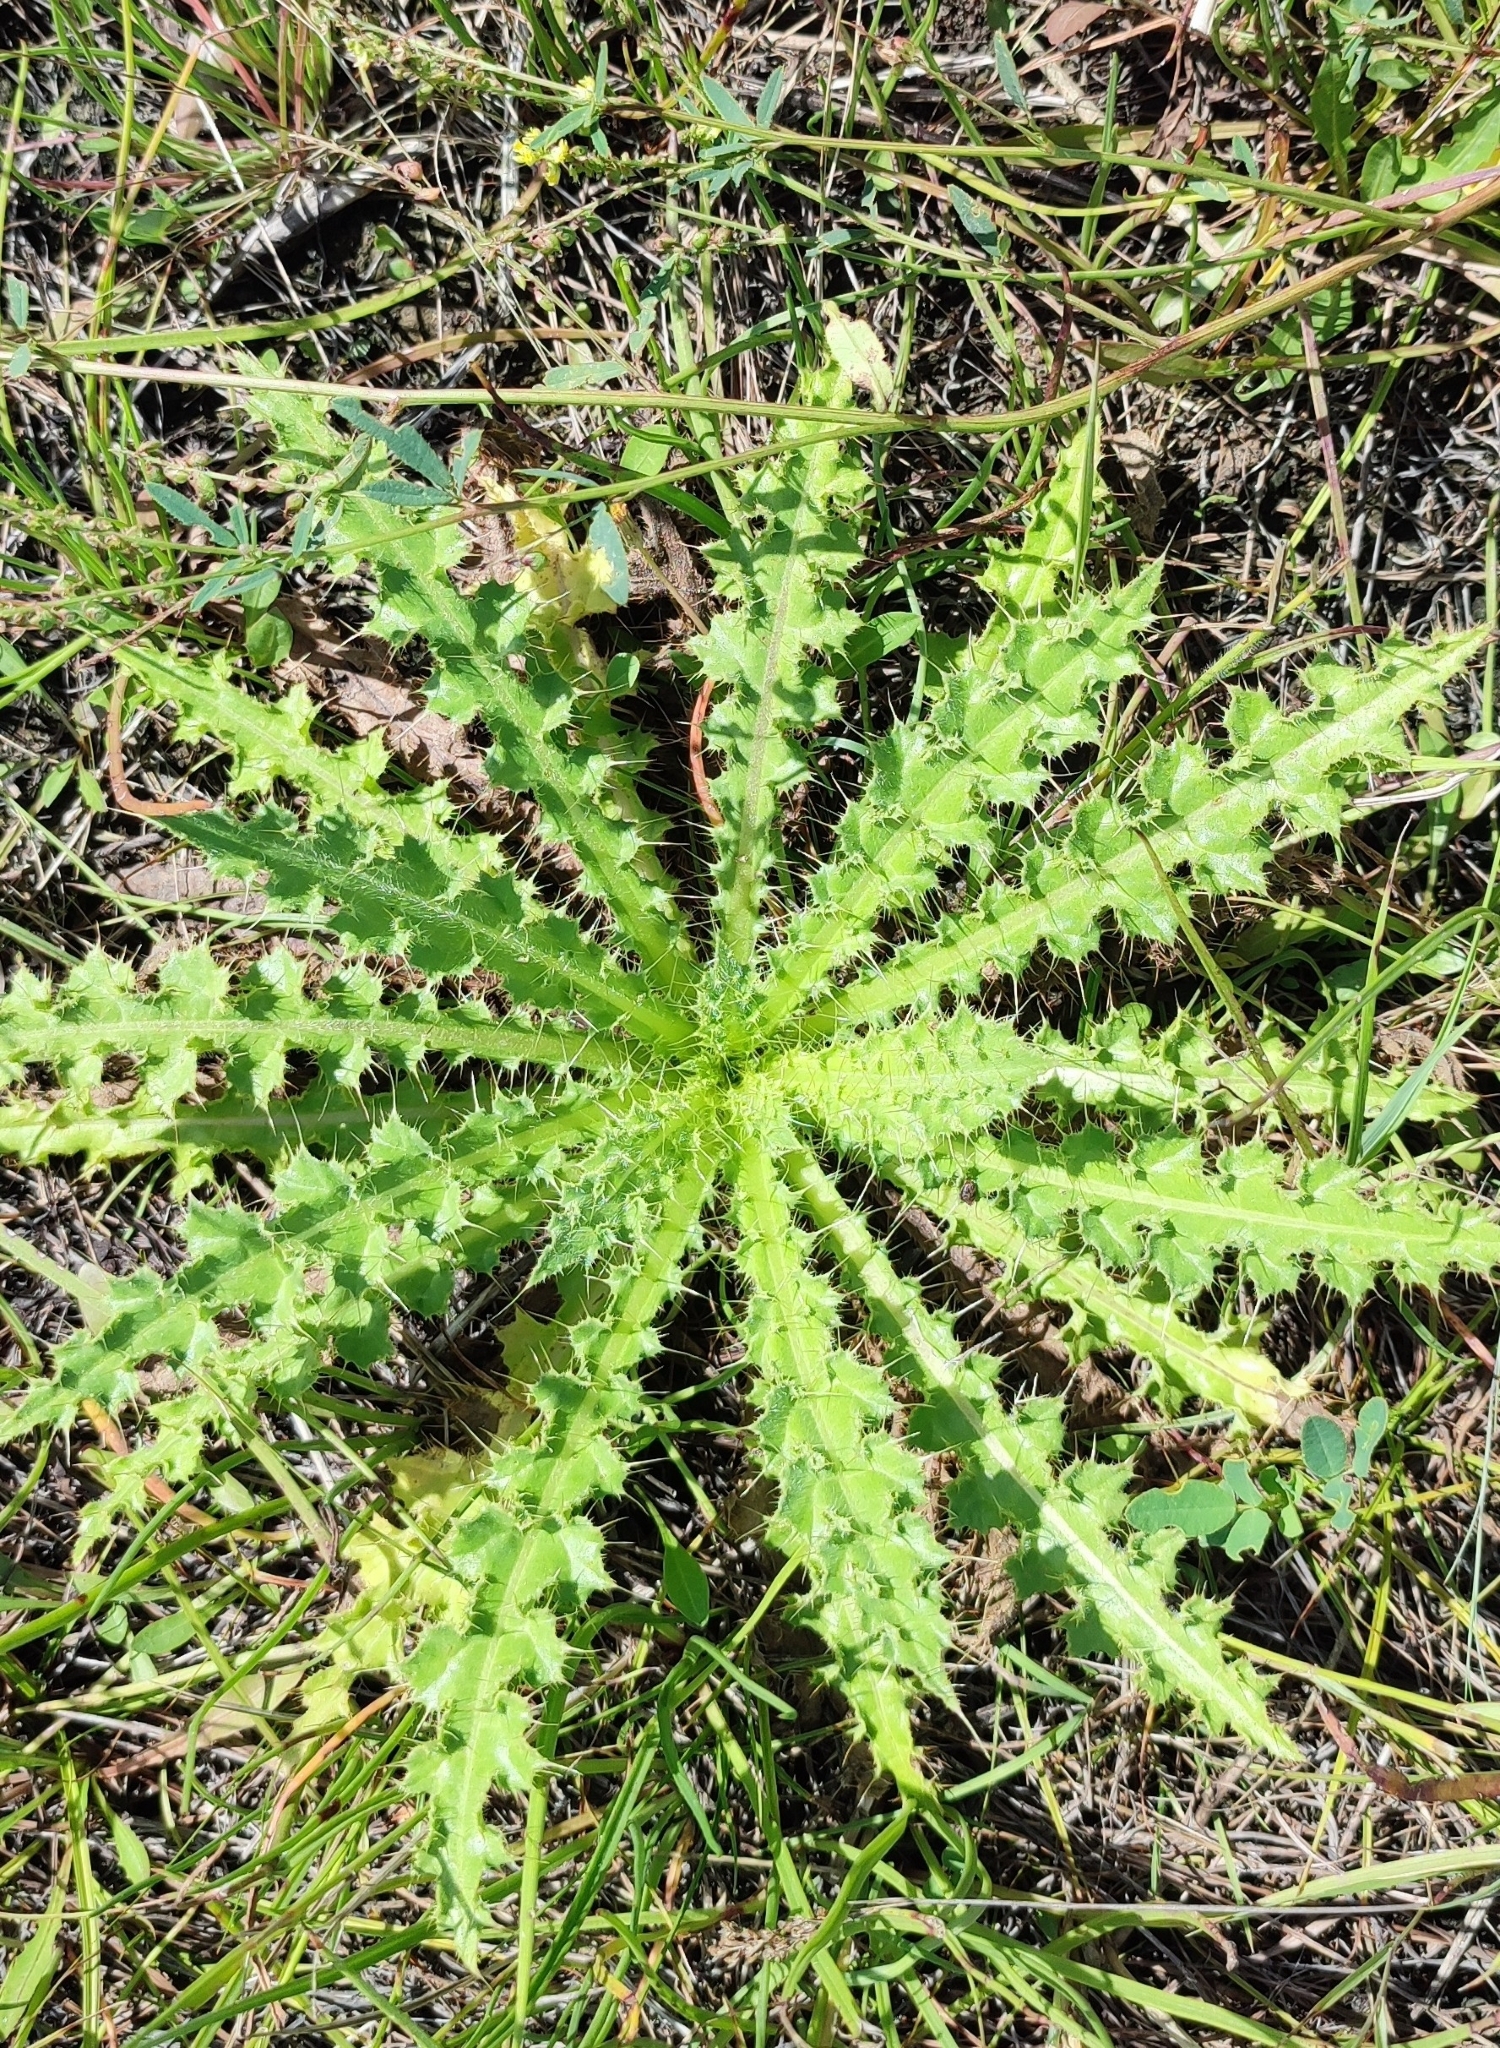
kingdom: Plantae
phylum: Tracheophyta
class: Magnoliopsida
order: Asterales
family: Asteraceae
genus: Cirsium
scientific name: Cirsium esculentum
